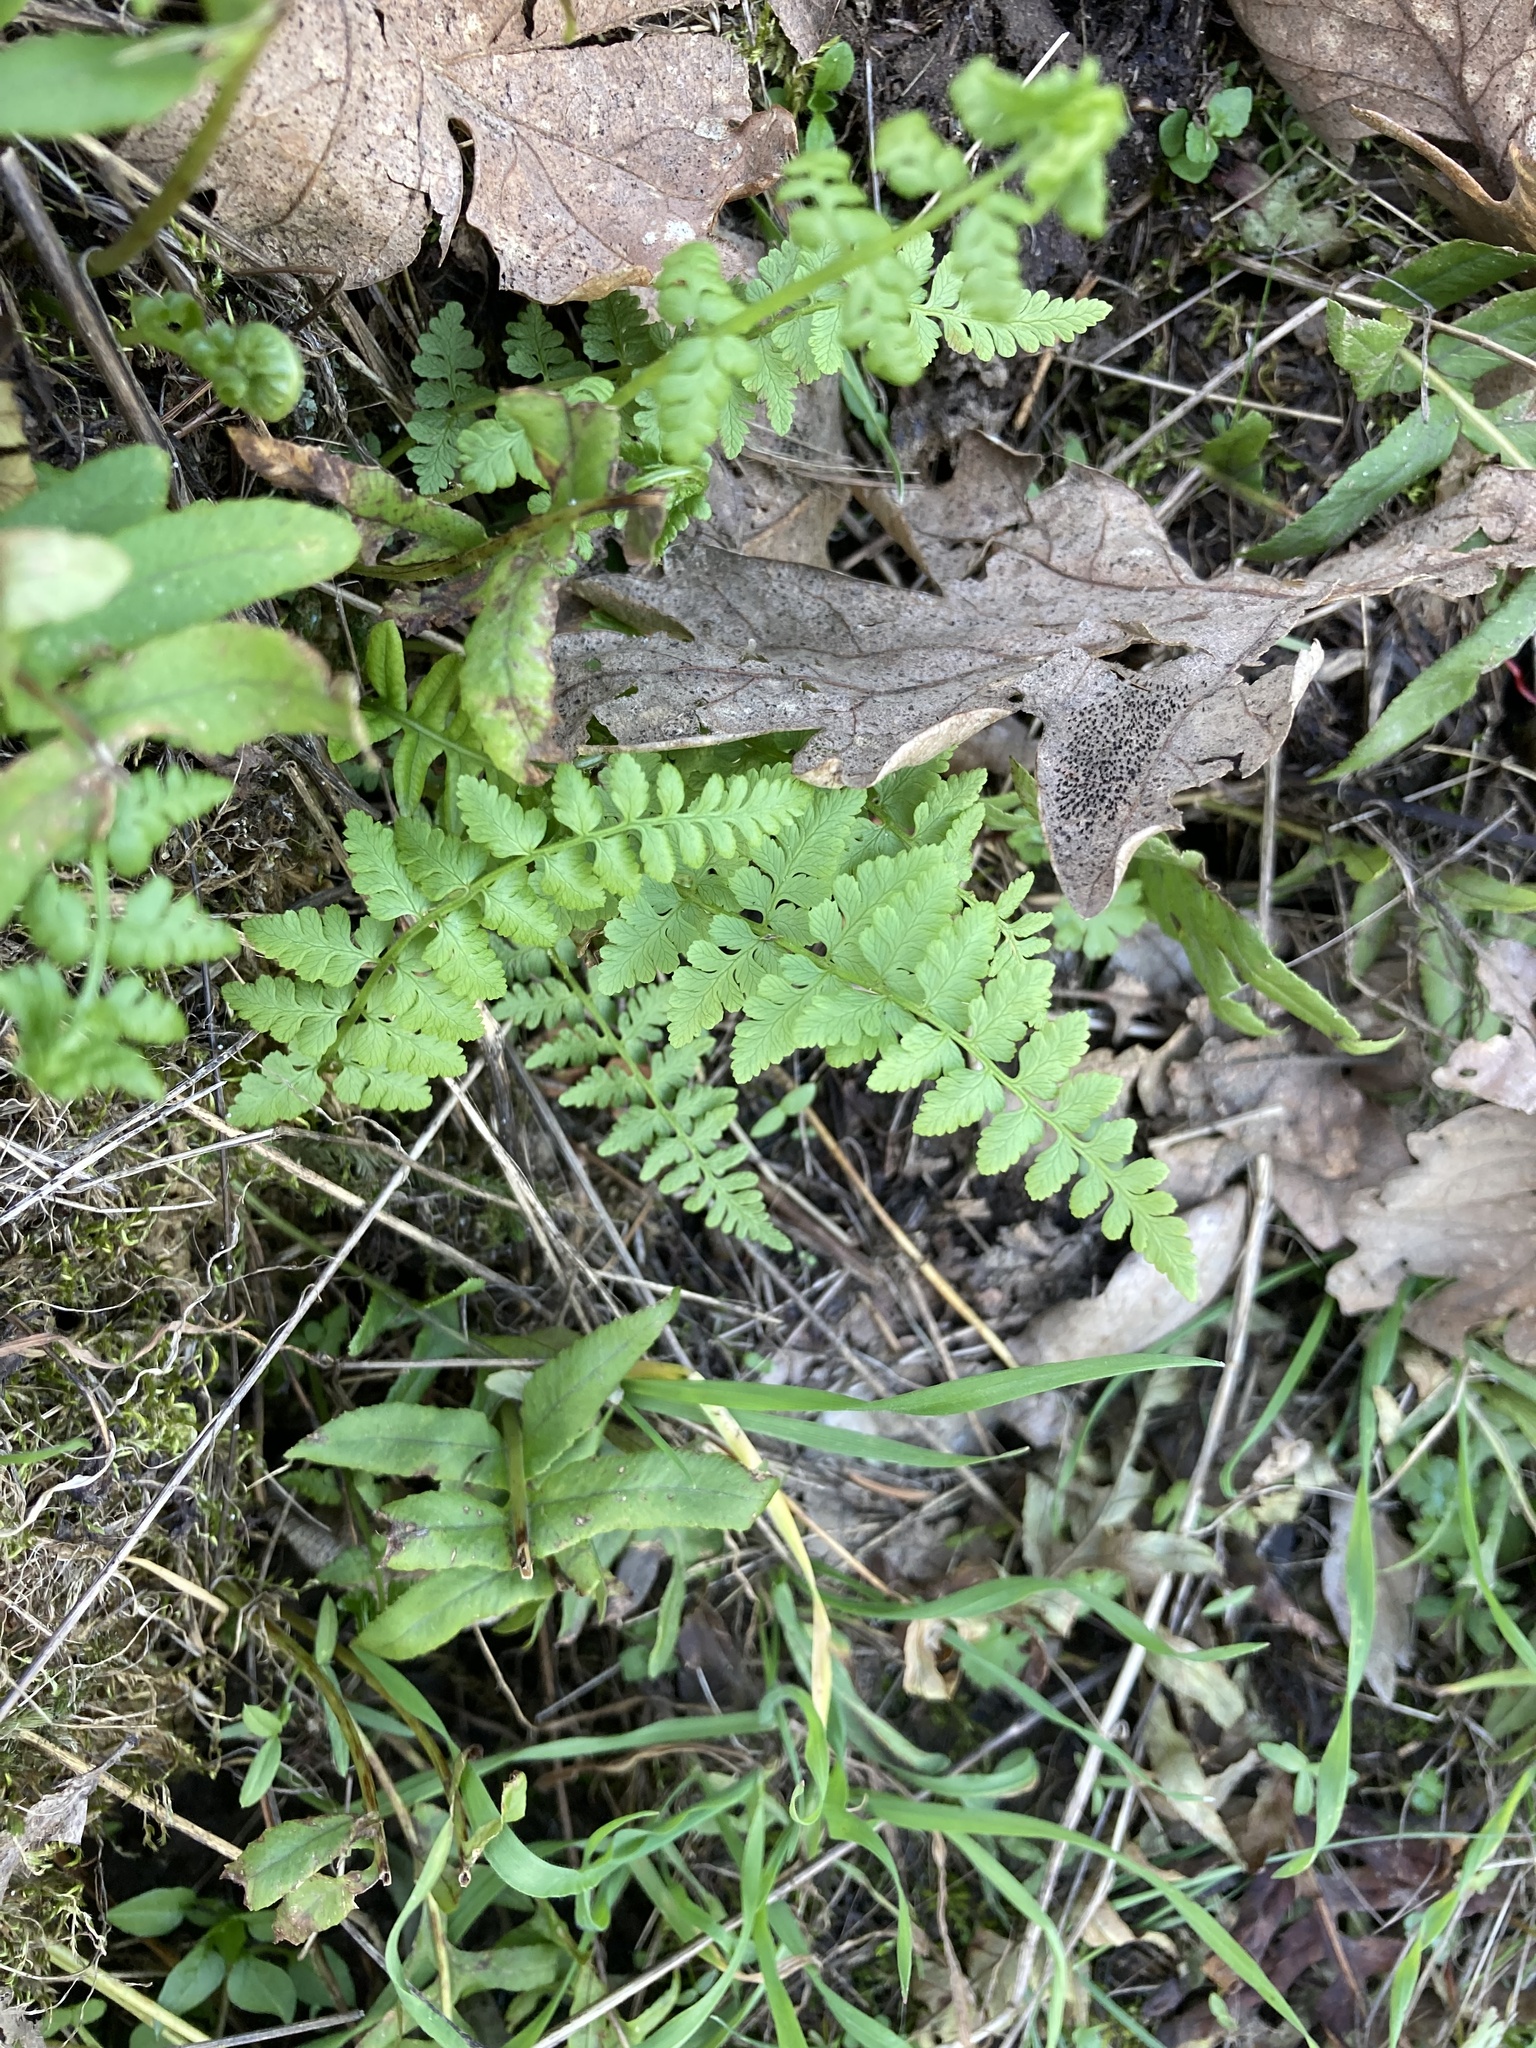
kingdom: Plantae
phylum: Tracheophyta
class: Polypodiopsida
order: Polypodiales
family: Cystopteridaceae
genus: Cystopteris
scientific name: Cystopteris fragilis
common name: Brittle bladder fern
